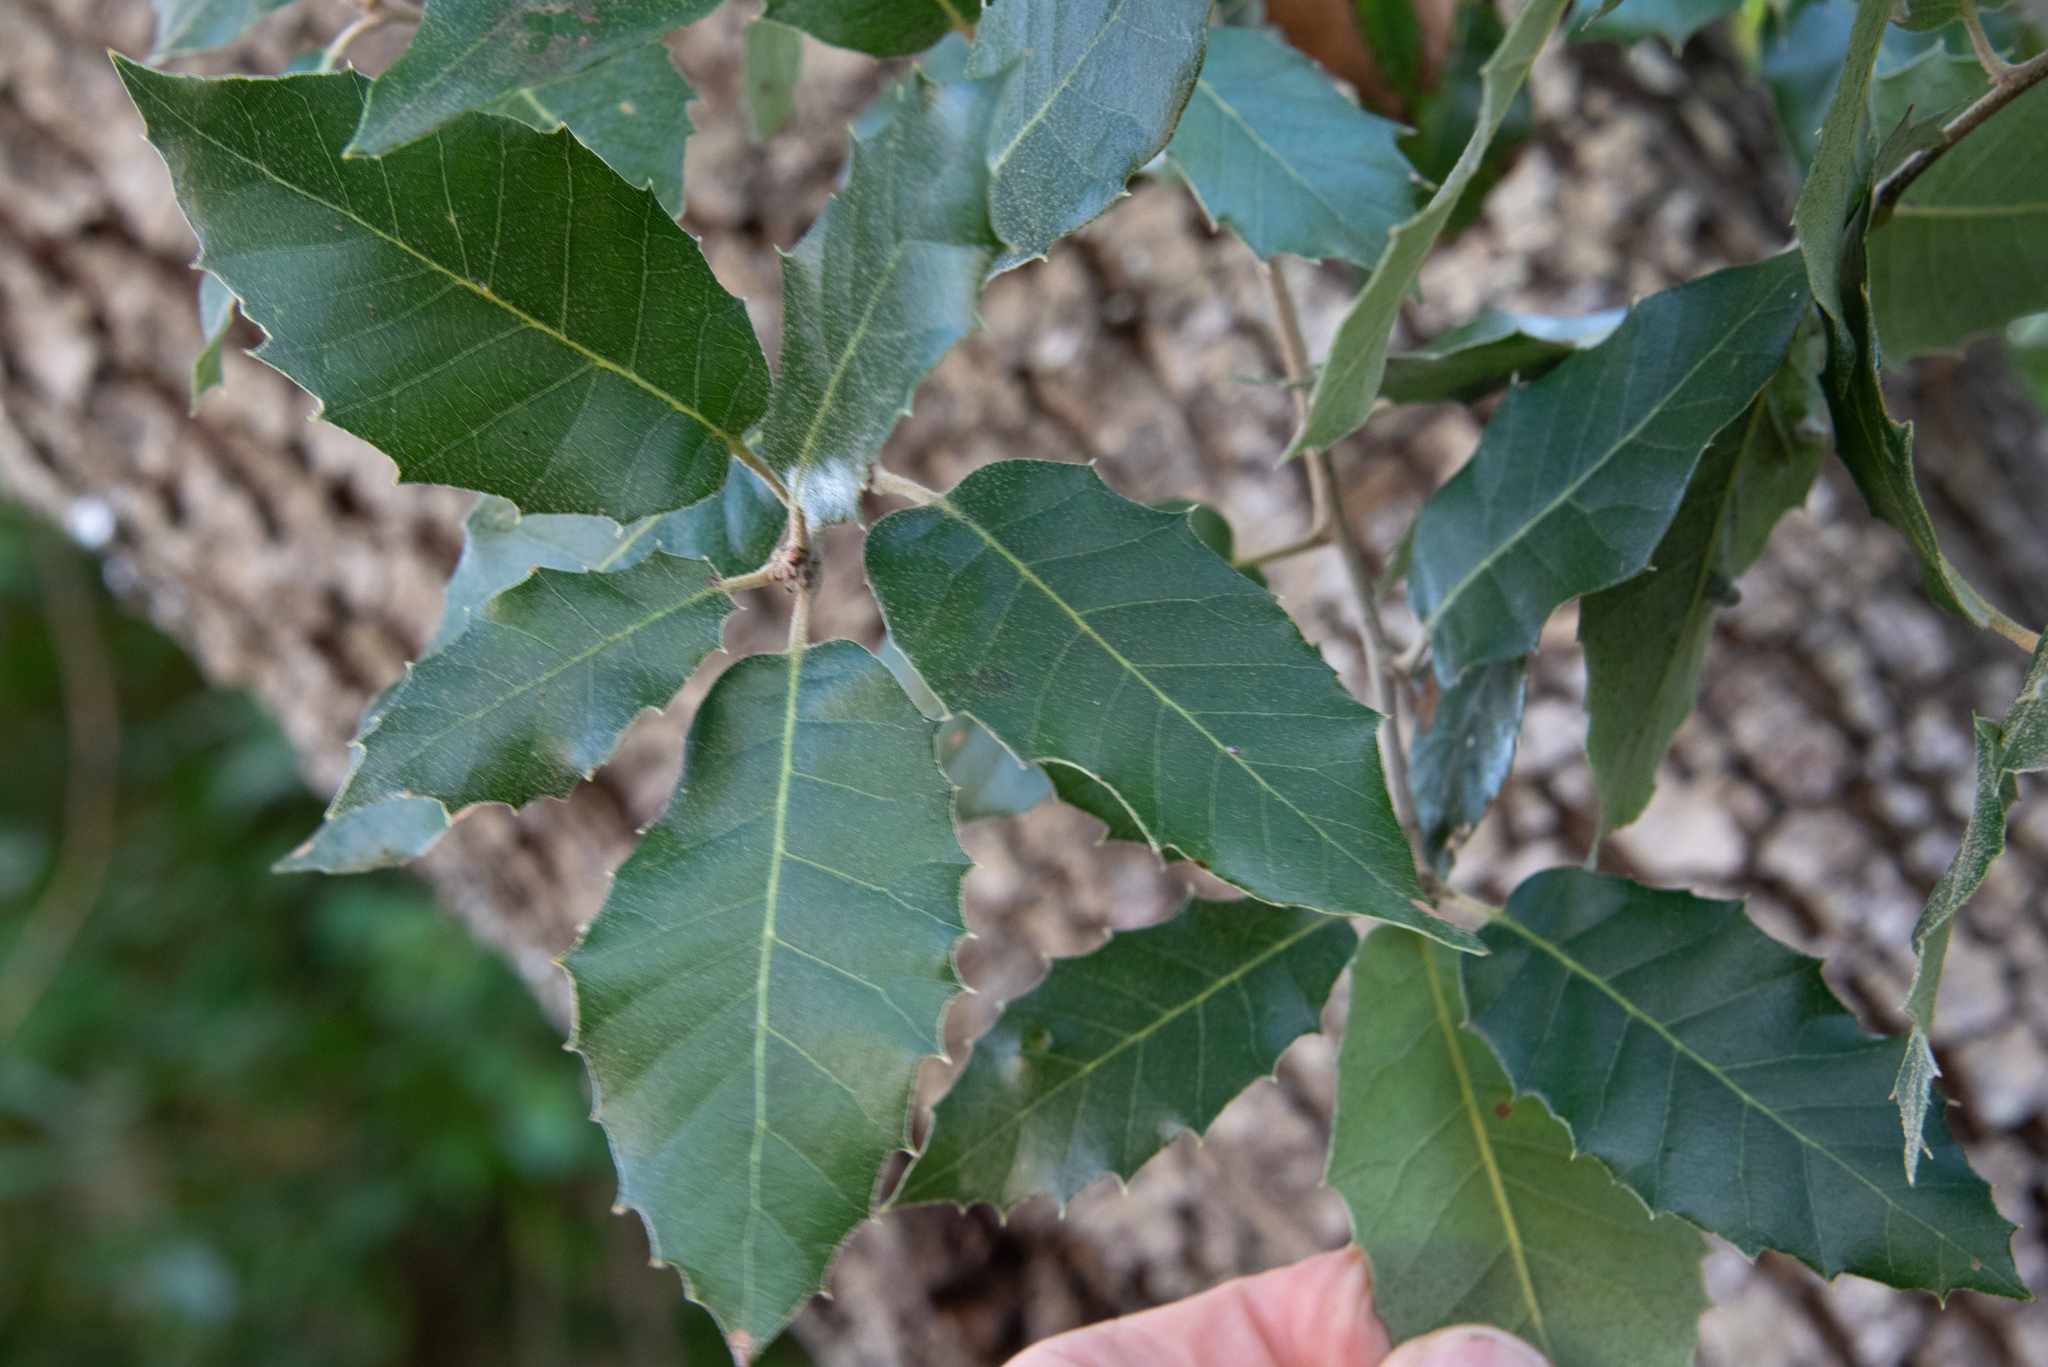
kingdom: Plantae
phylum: Tracheophyta
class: Magnoliopsida
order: Fagales
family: Fagaceae
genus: Quercus
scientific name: Quercus ilex
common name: Evergreen oak
